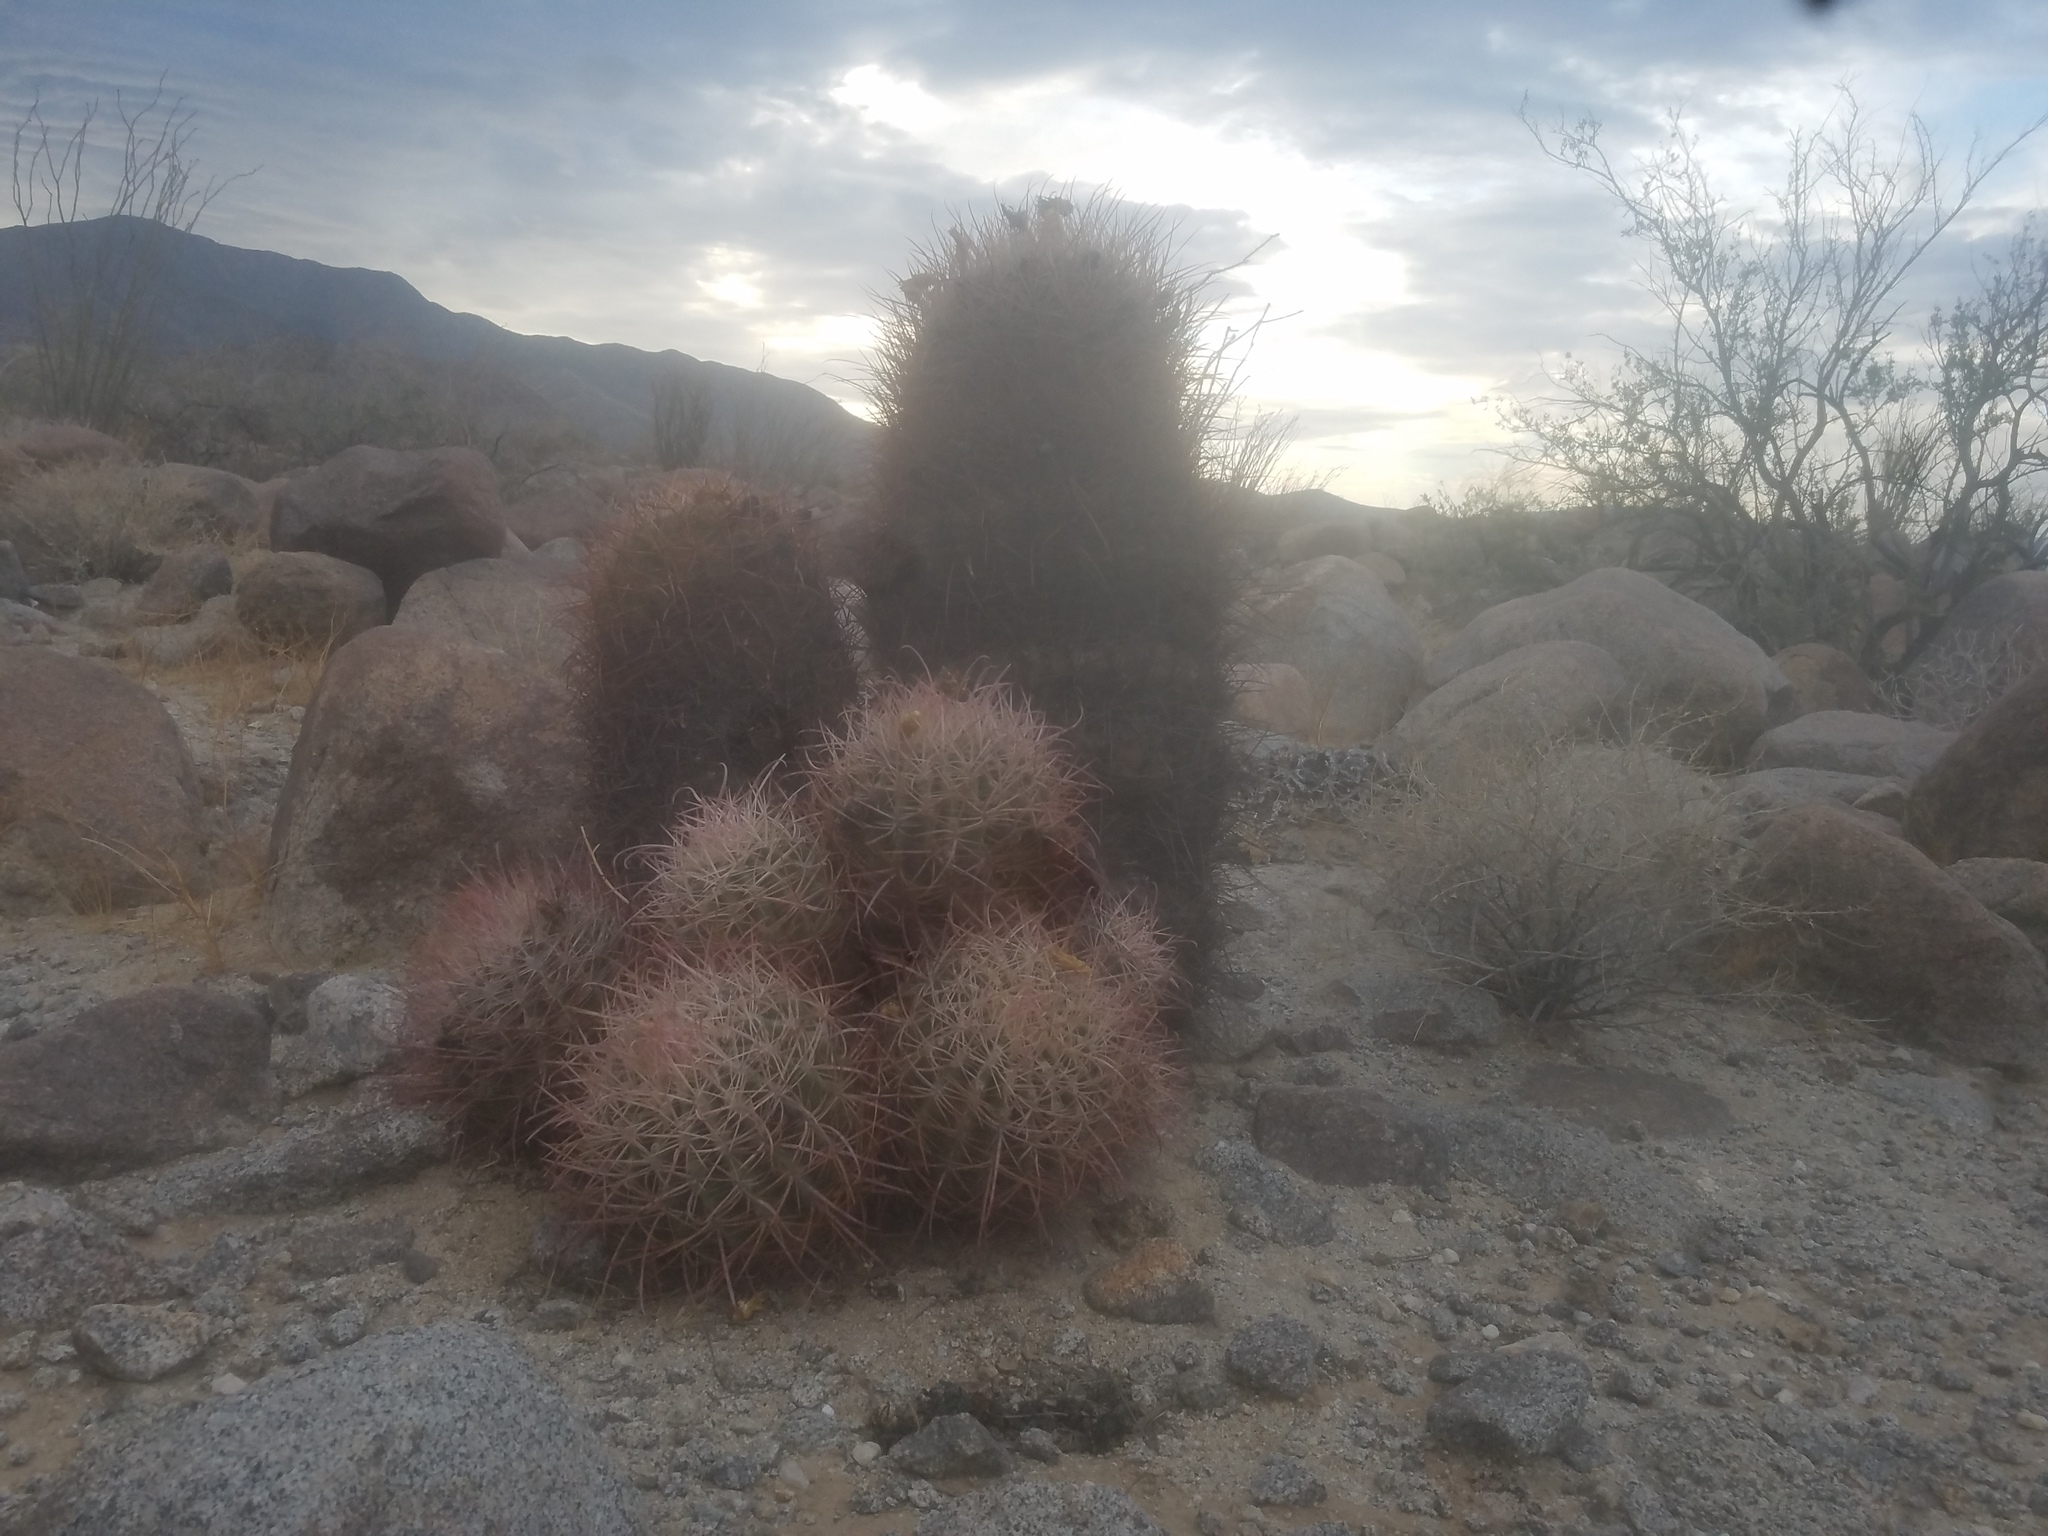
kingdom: Plantae
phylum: Tracheophyta
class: Magnoliopsida
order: Caryophyllales
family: Cactaceae
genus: Ferocactus
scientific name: Ferocactus cylindraceus
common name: California barrel cactus
